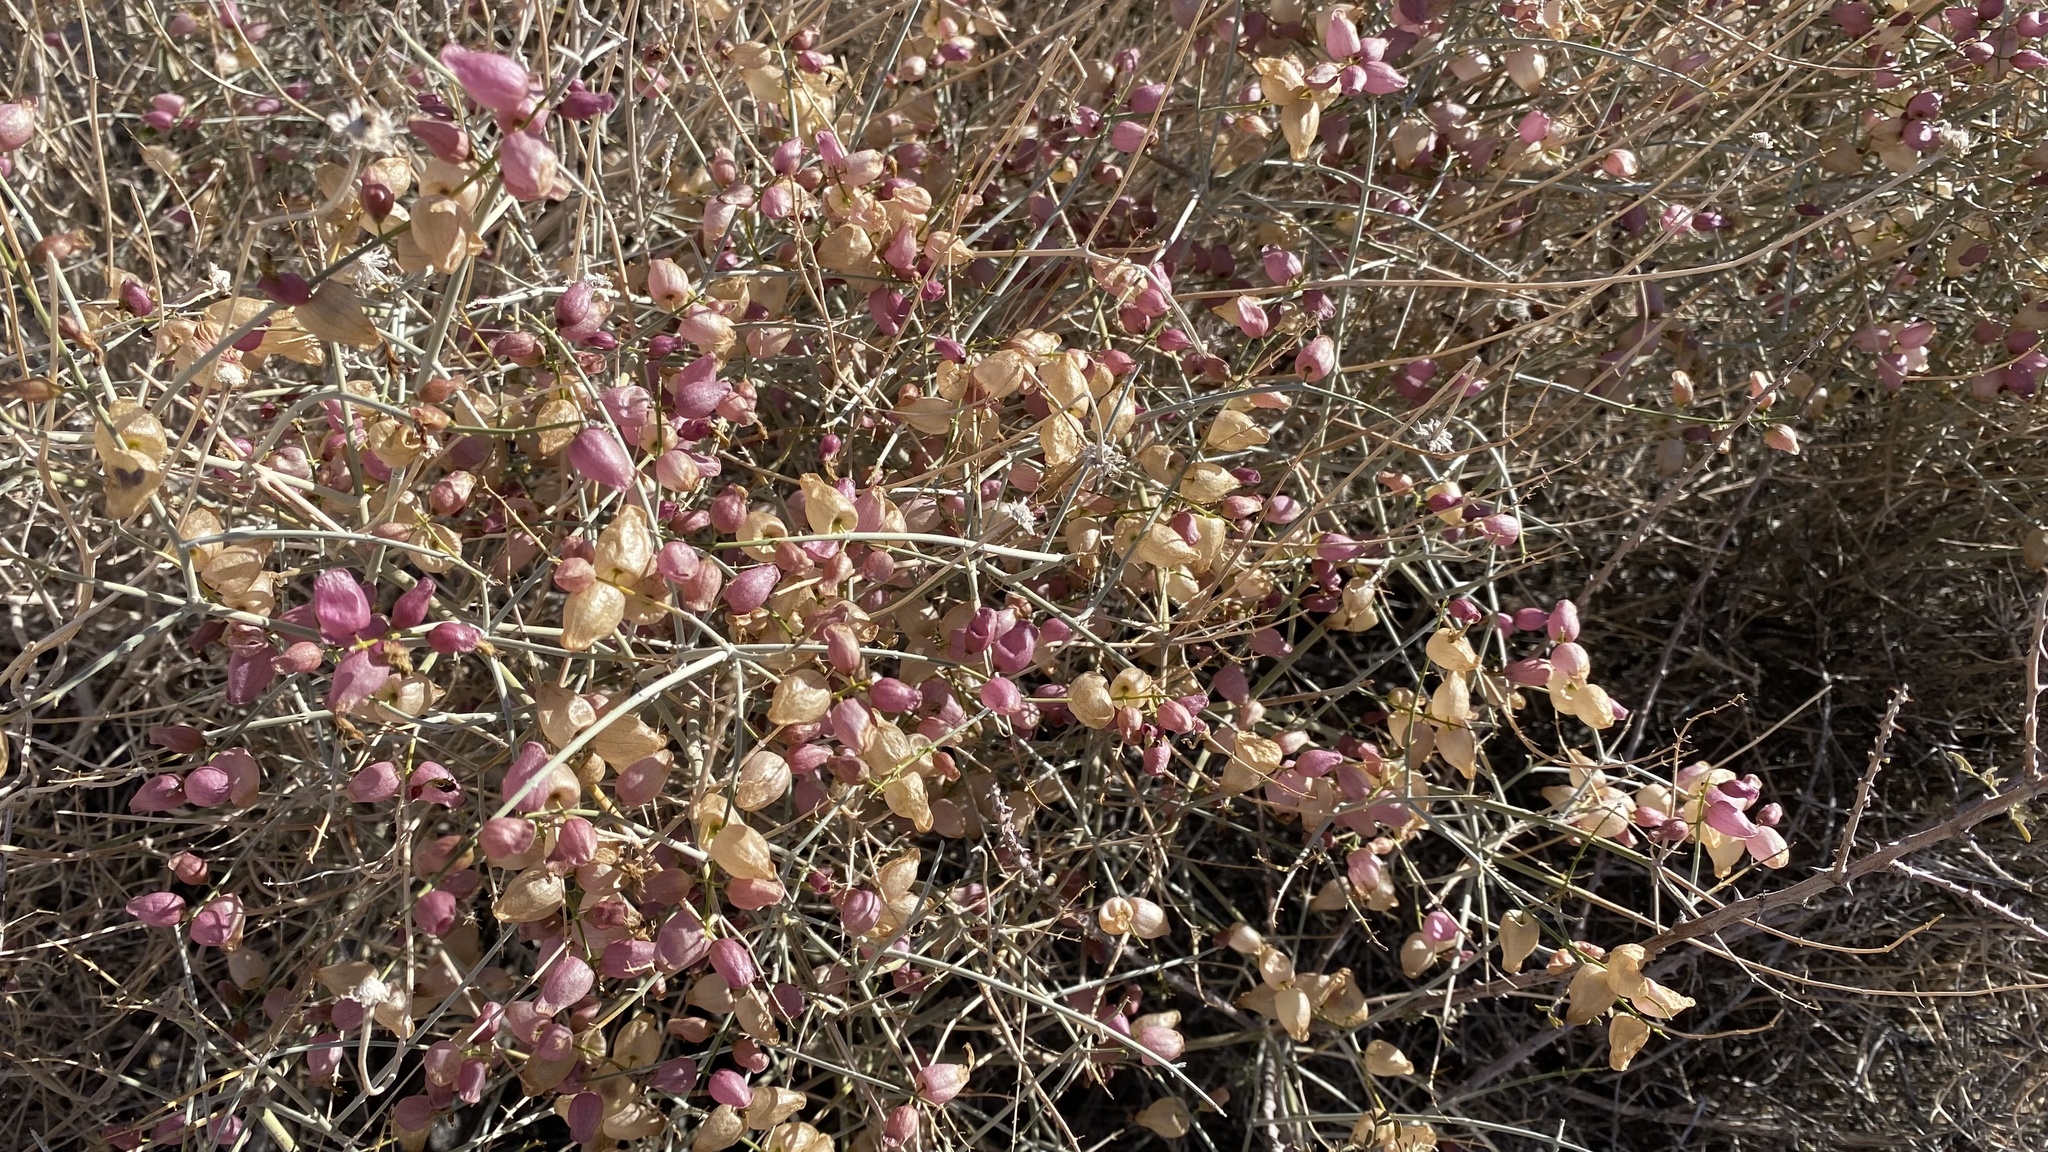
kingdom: Plantae
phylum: Tracheophyta
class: Magnoliopsida
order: Lamiales
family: Lamiaceae
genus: Scutellaria
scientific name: Scutellaria mexicana
